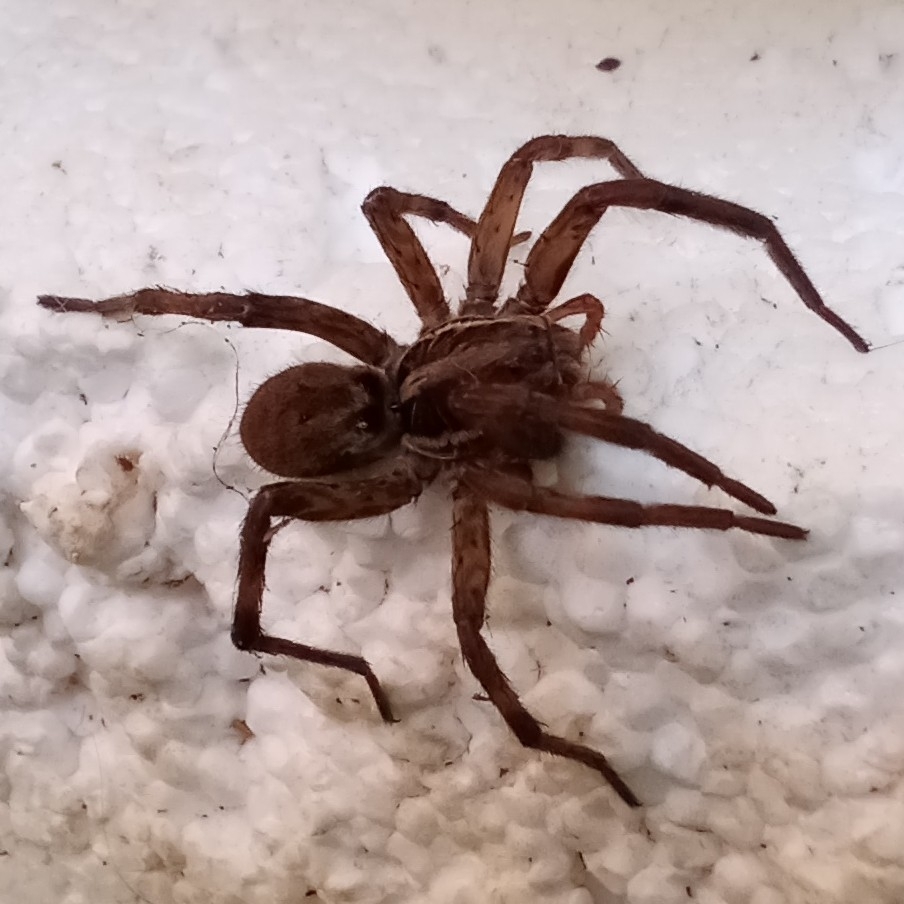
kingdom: Animalia
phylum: Arthropoda
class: Arachnida
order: Araneae
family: Lycosidae
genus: Hogna
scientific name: Hogna radiata
